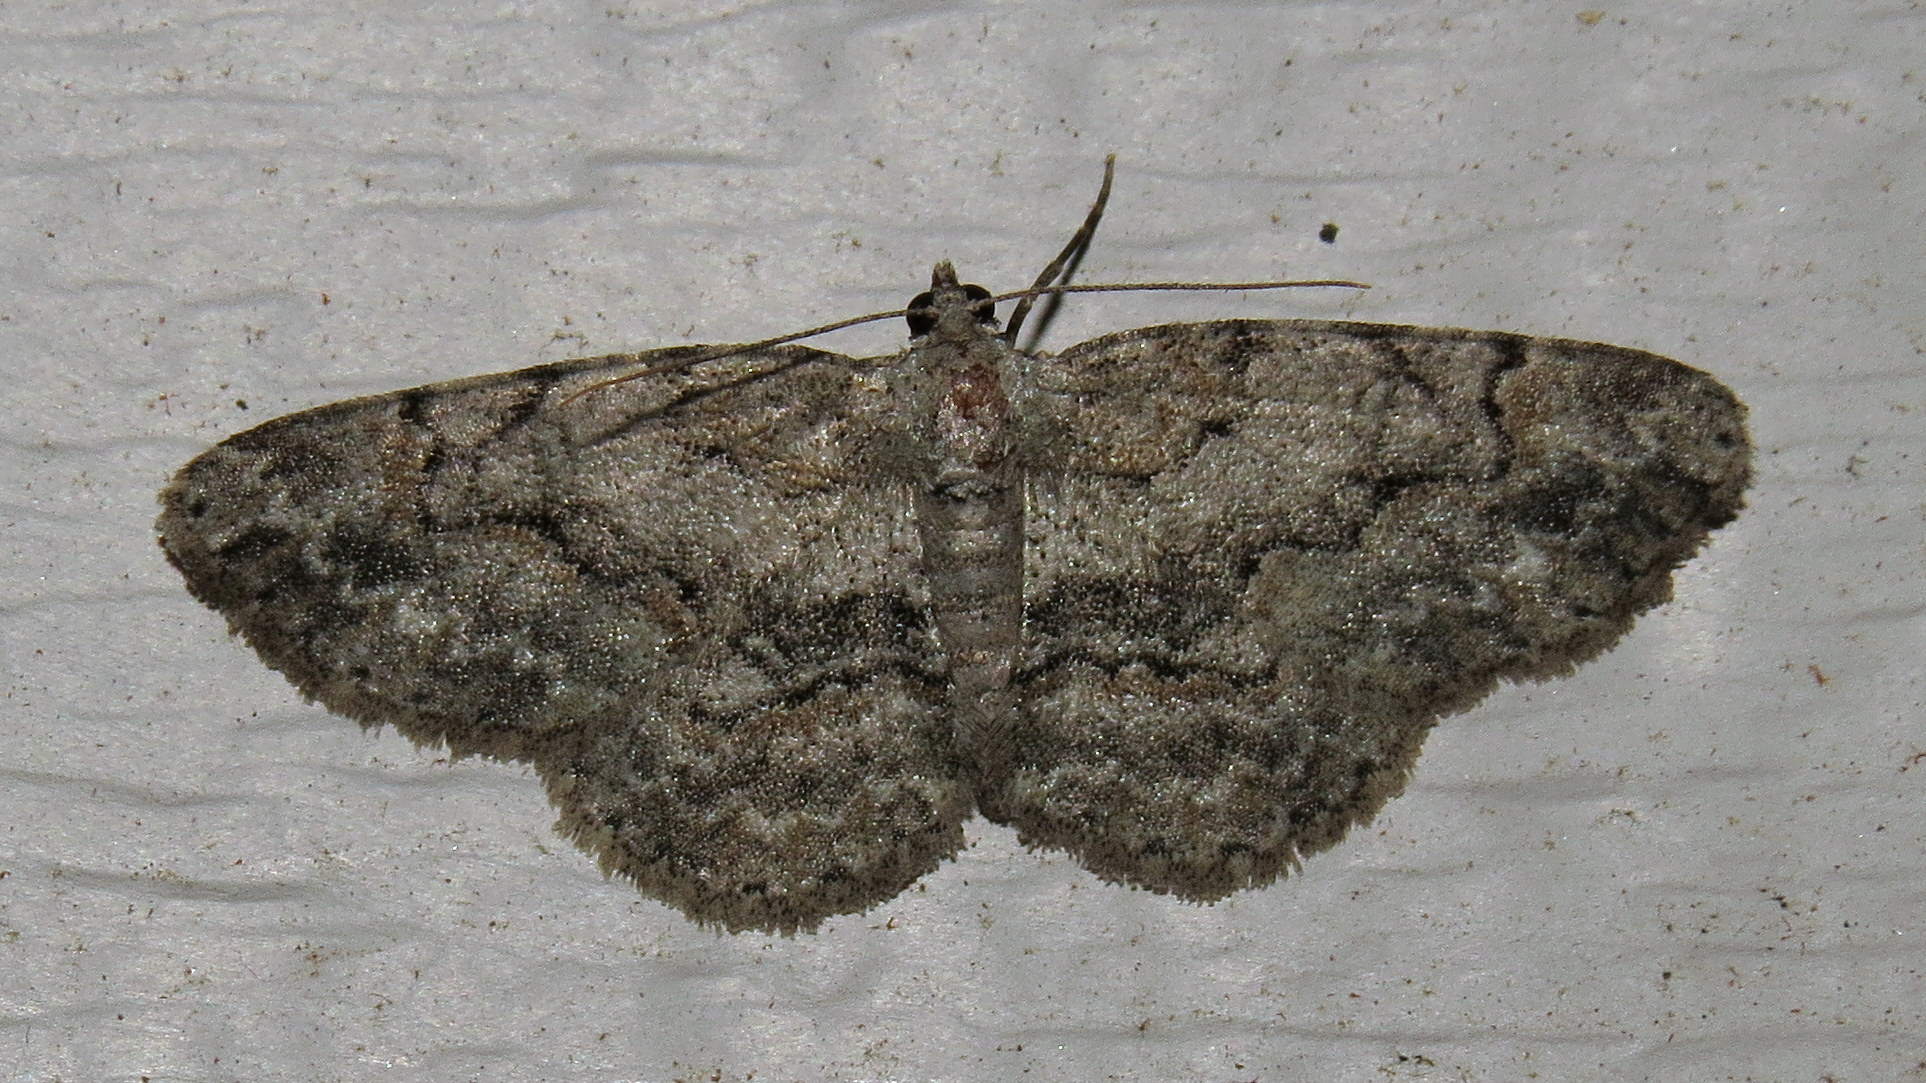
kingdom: Animalia
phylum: Arthropoda
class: Insecta
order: Lepidoptera
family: Geometridae
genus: Iridopsis
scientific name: Iridopsis ephyraria
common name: Pale-winged gray
